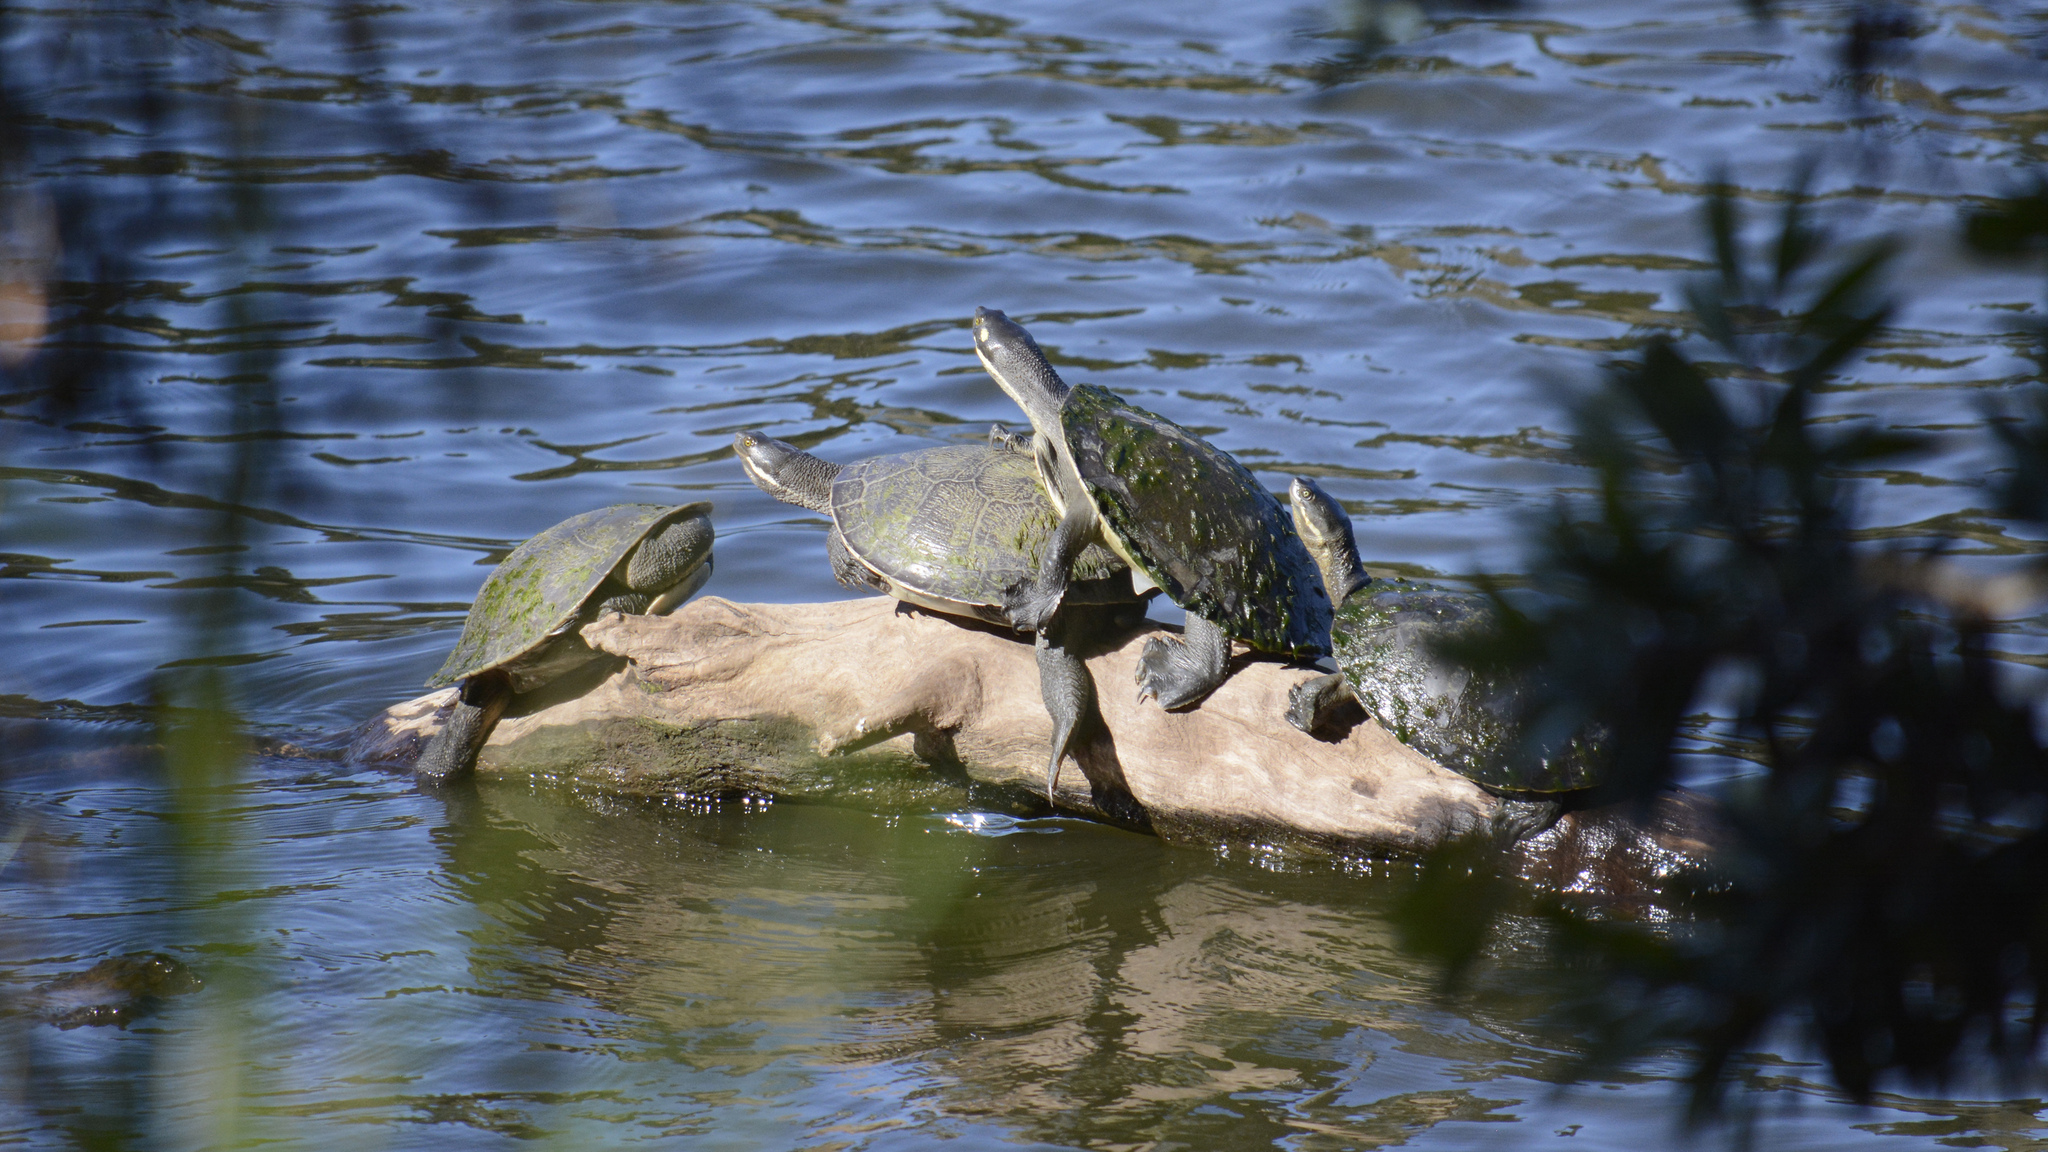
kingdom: Animalia
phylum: Chordata
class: Testudines
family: Chelidae
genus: Emydura
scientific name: Emydura macquarii
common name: Murray river turtle
